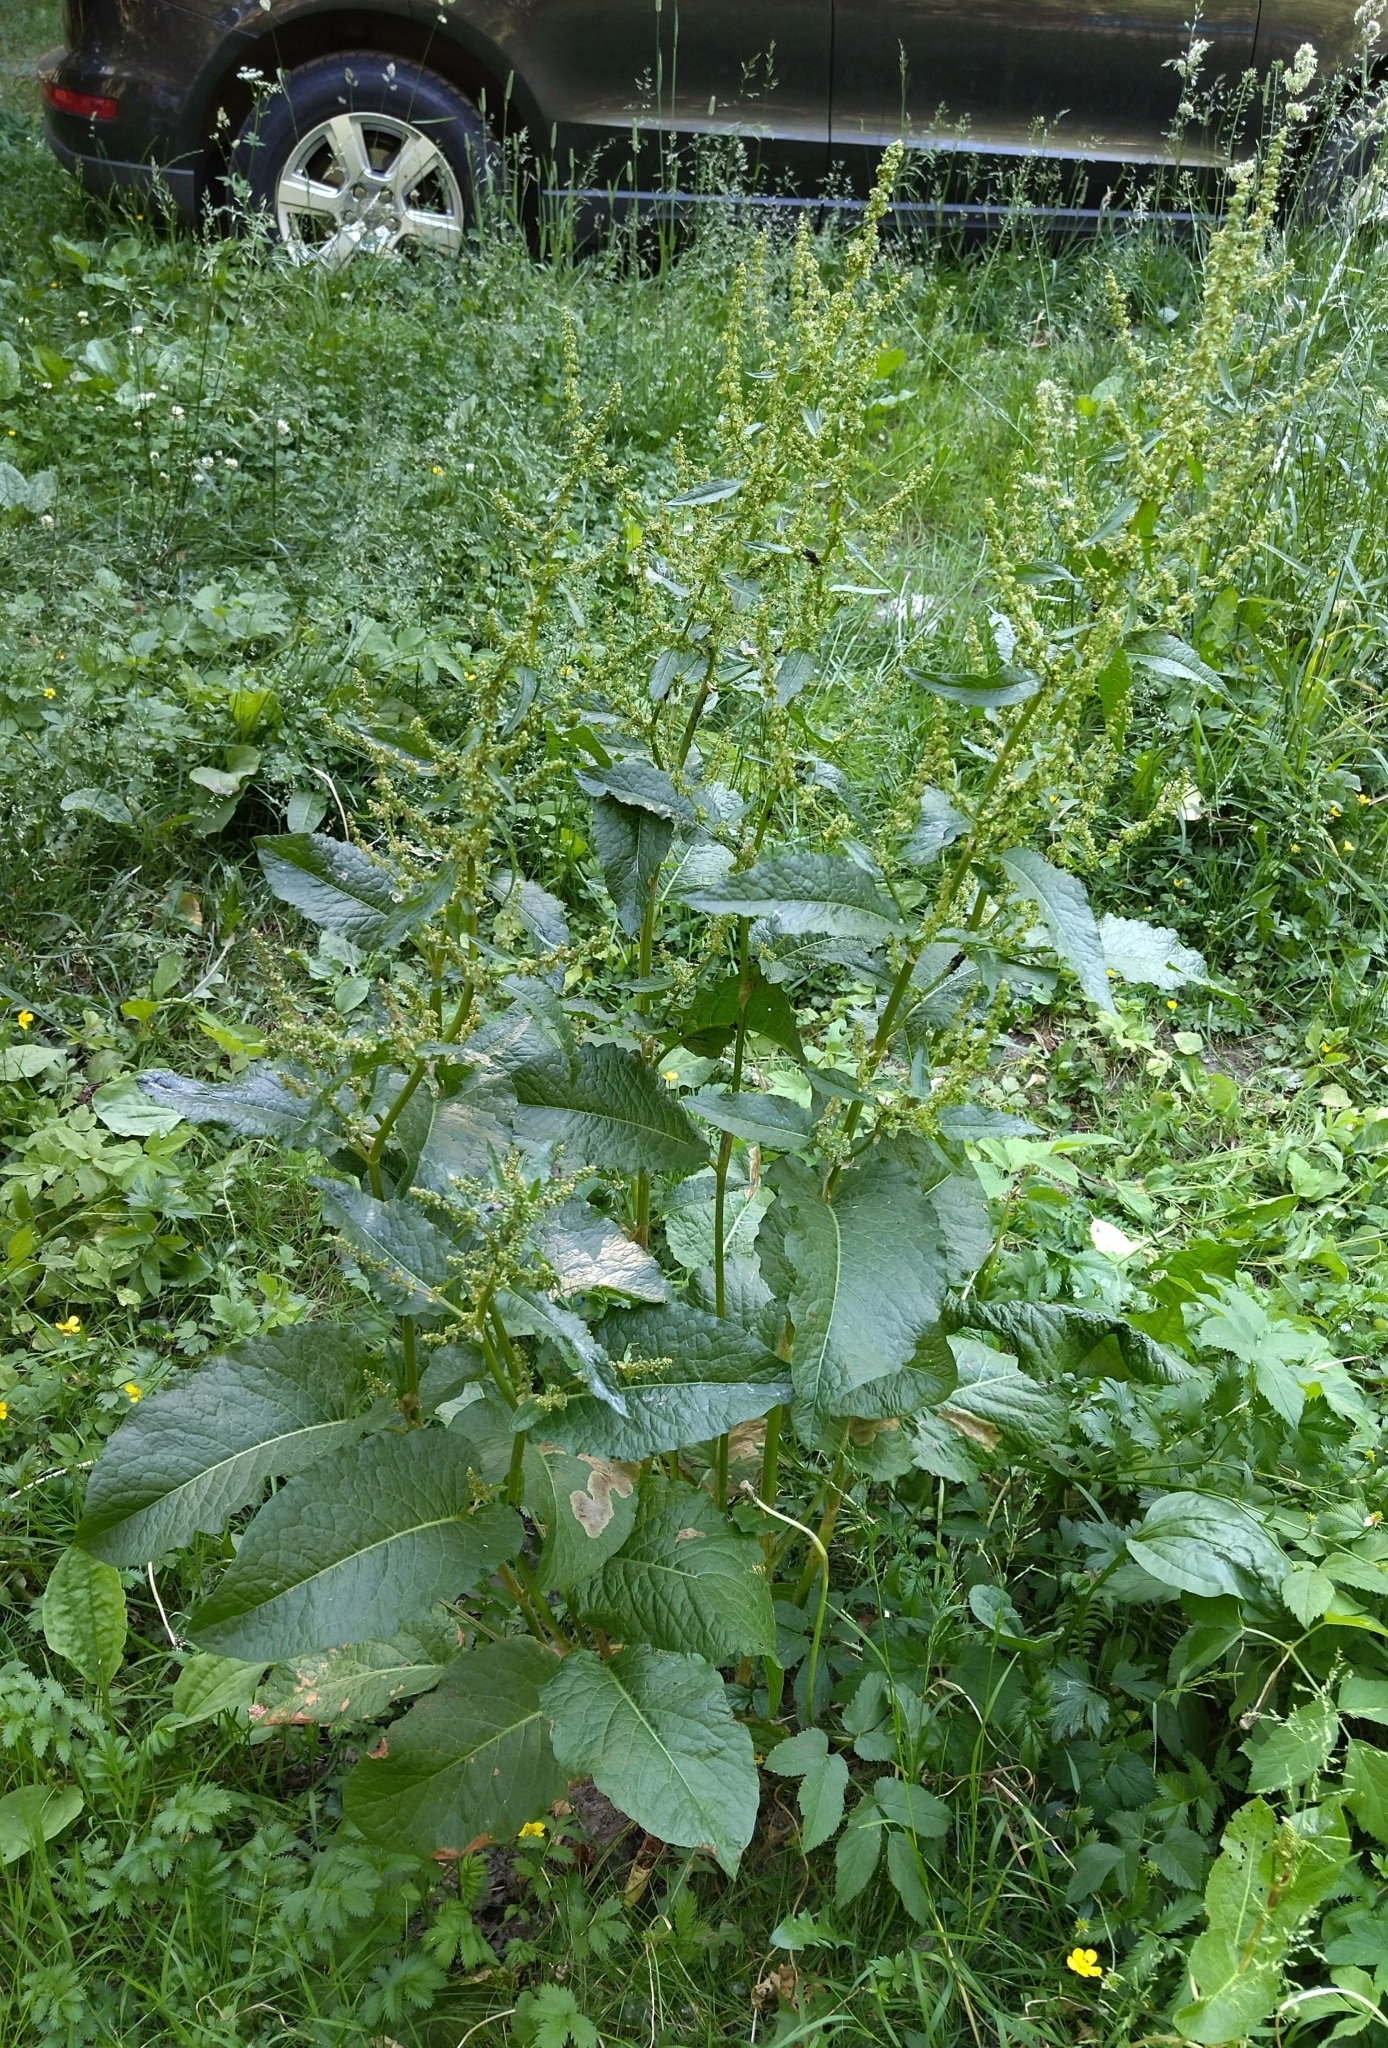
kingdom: Plantae
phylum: Tracheophyta
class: Magnoliopsida
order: Caryophyllales
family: Polygonaceae
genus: Rumex
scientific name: Rumex obtusifolius
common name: Bitter dock
